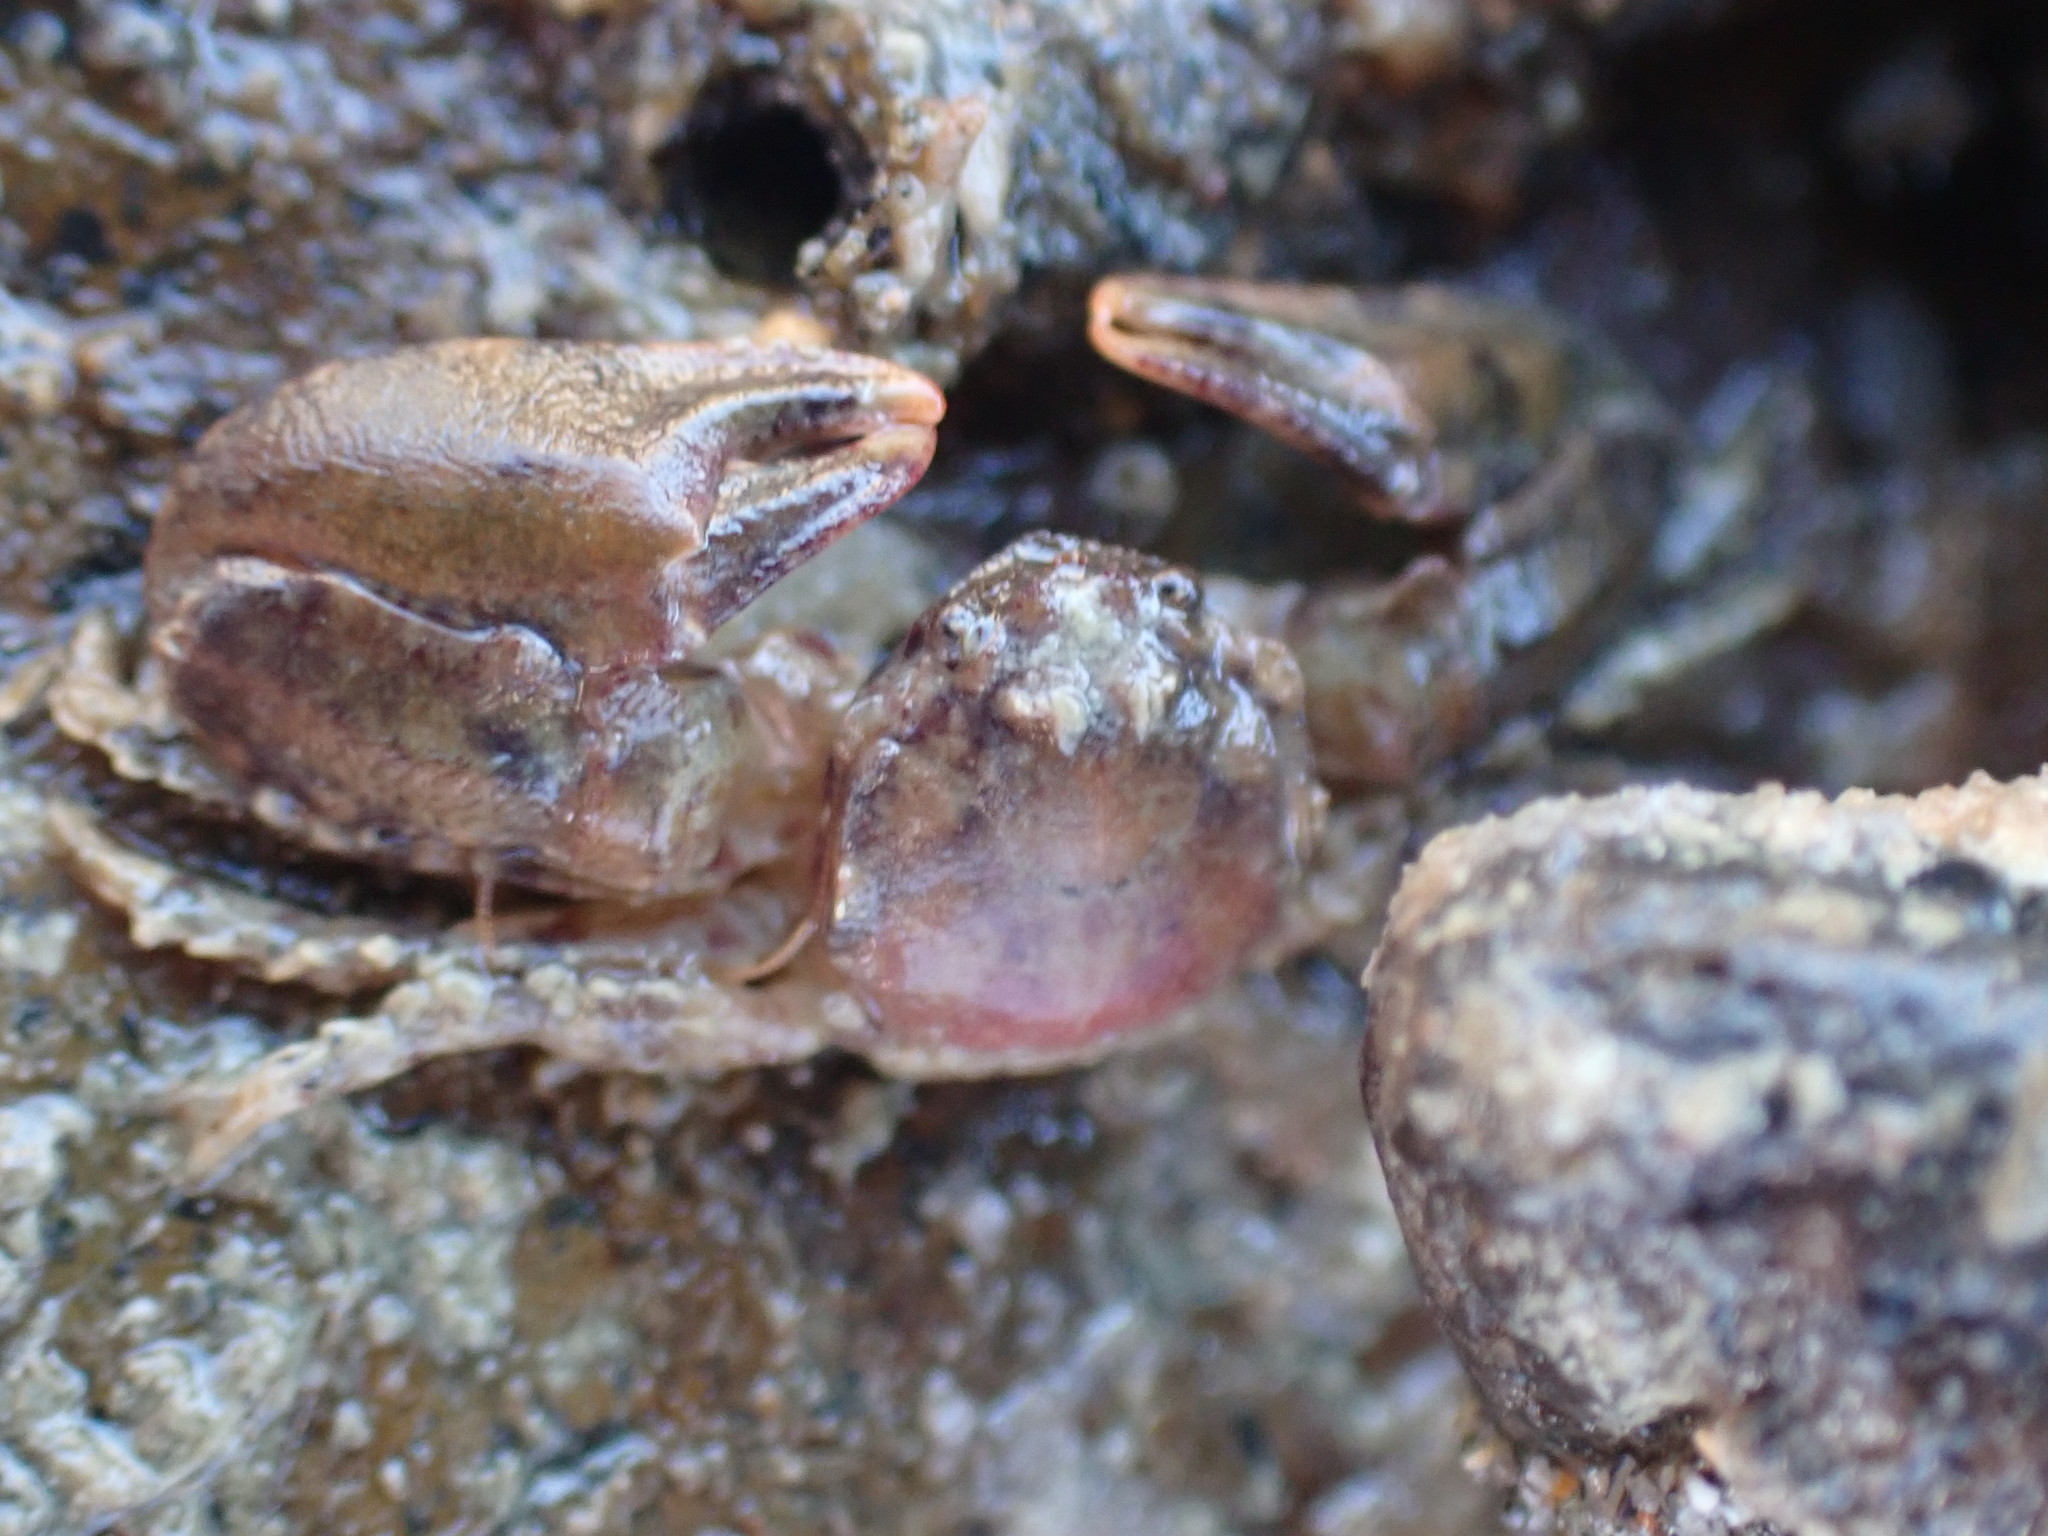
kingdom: Animalia
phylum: Arthropoda
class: Malacostraca
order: Decapoda
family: Porcellanidae
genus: Petrolisthes
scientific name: Petrolisthes novaezelandiae
